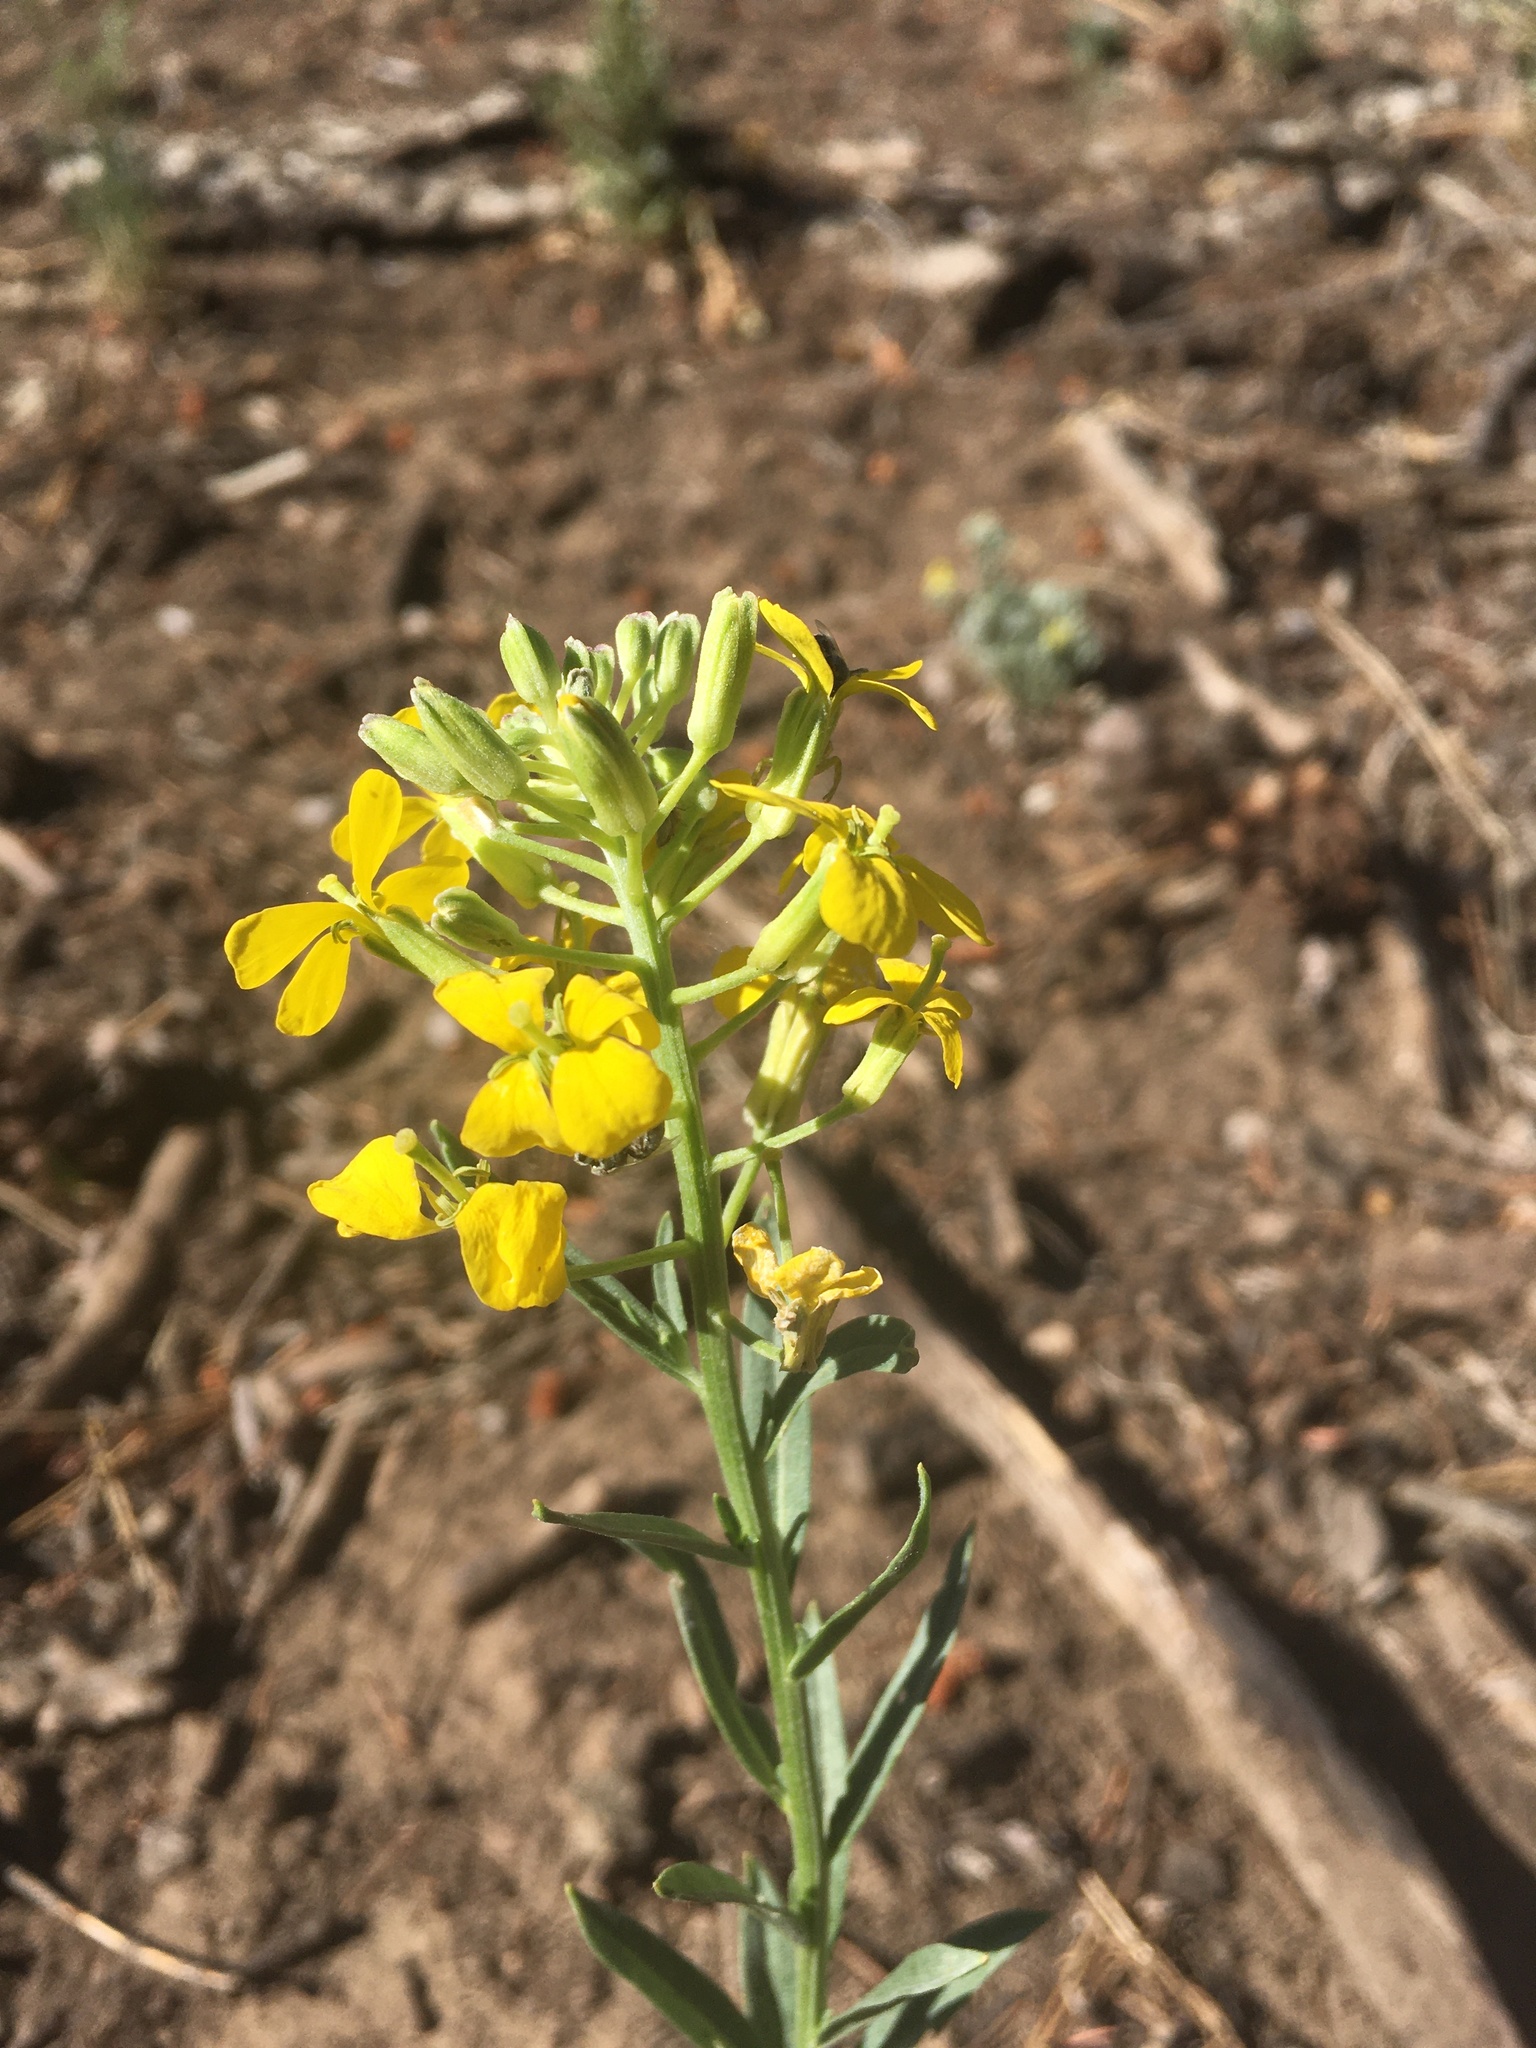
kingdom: Plantae
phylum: Tracheophyta
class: Magnoliopsida
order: Brassicales
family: Brassicaceae
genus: Erysimum
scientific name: Erysimum capitatum
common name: Western wallflower
